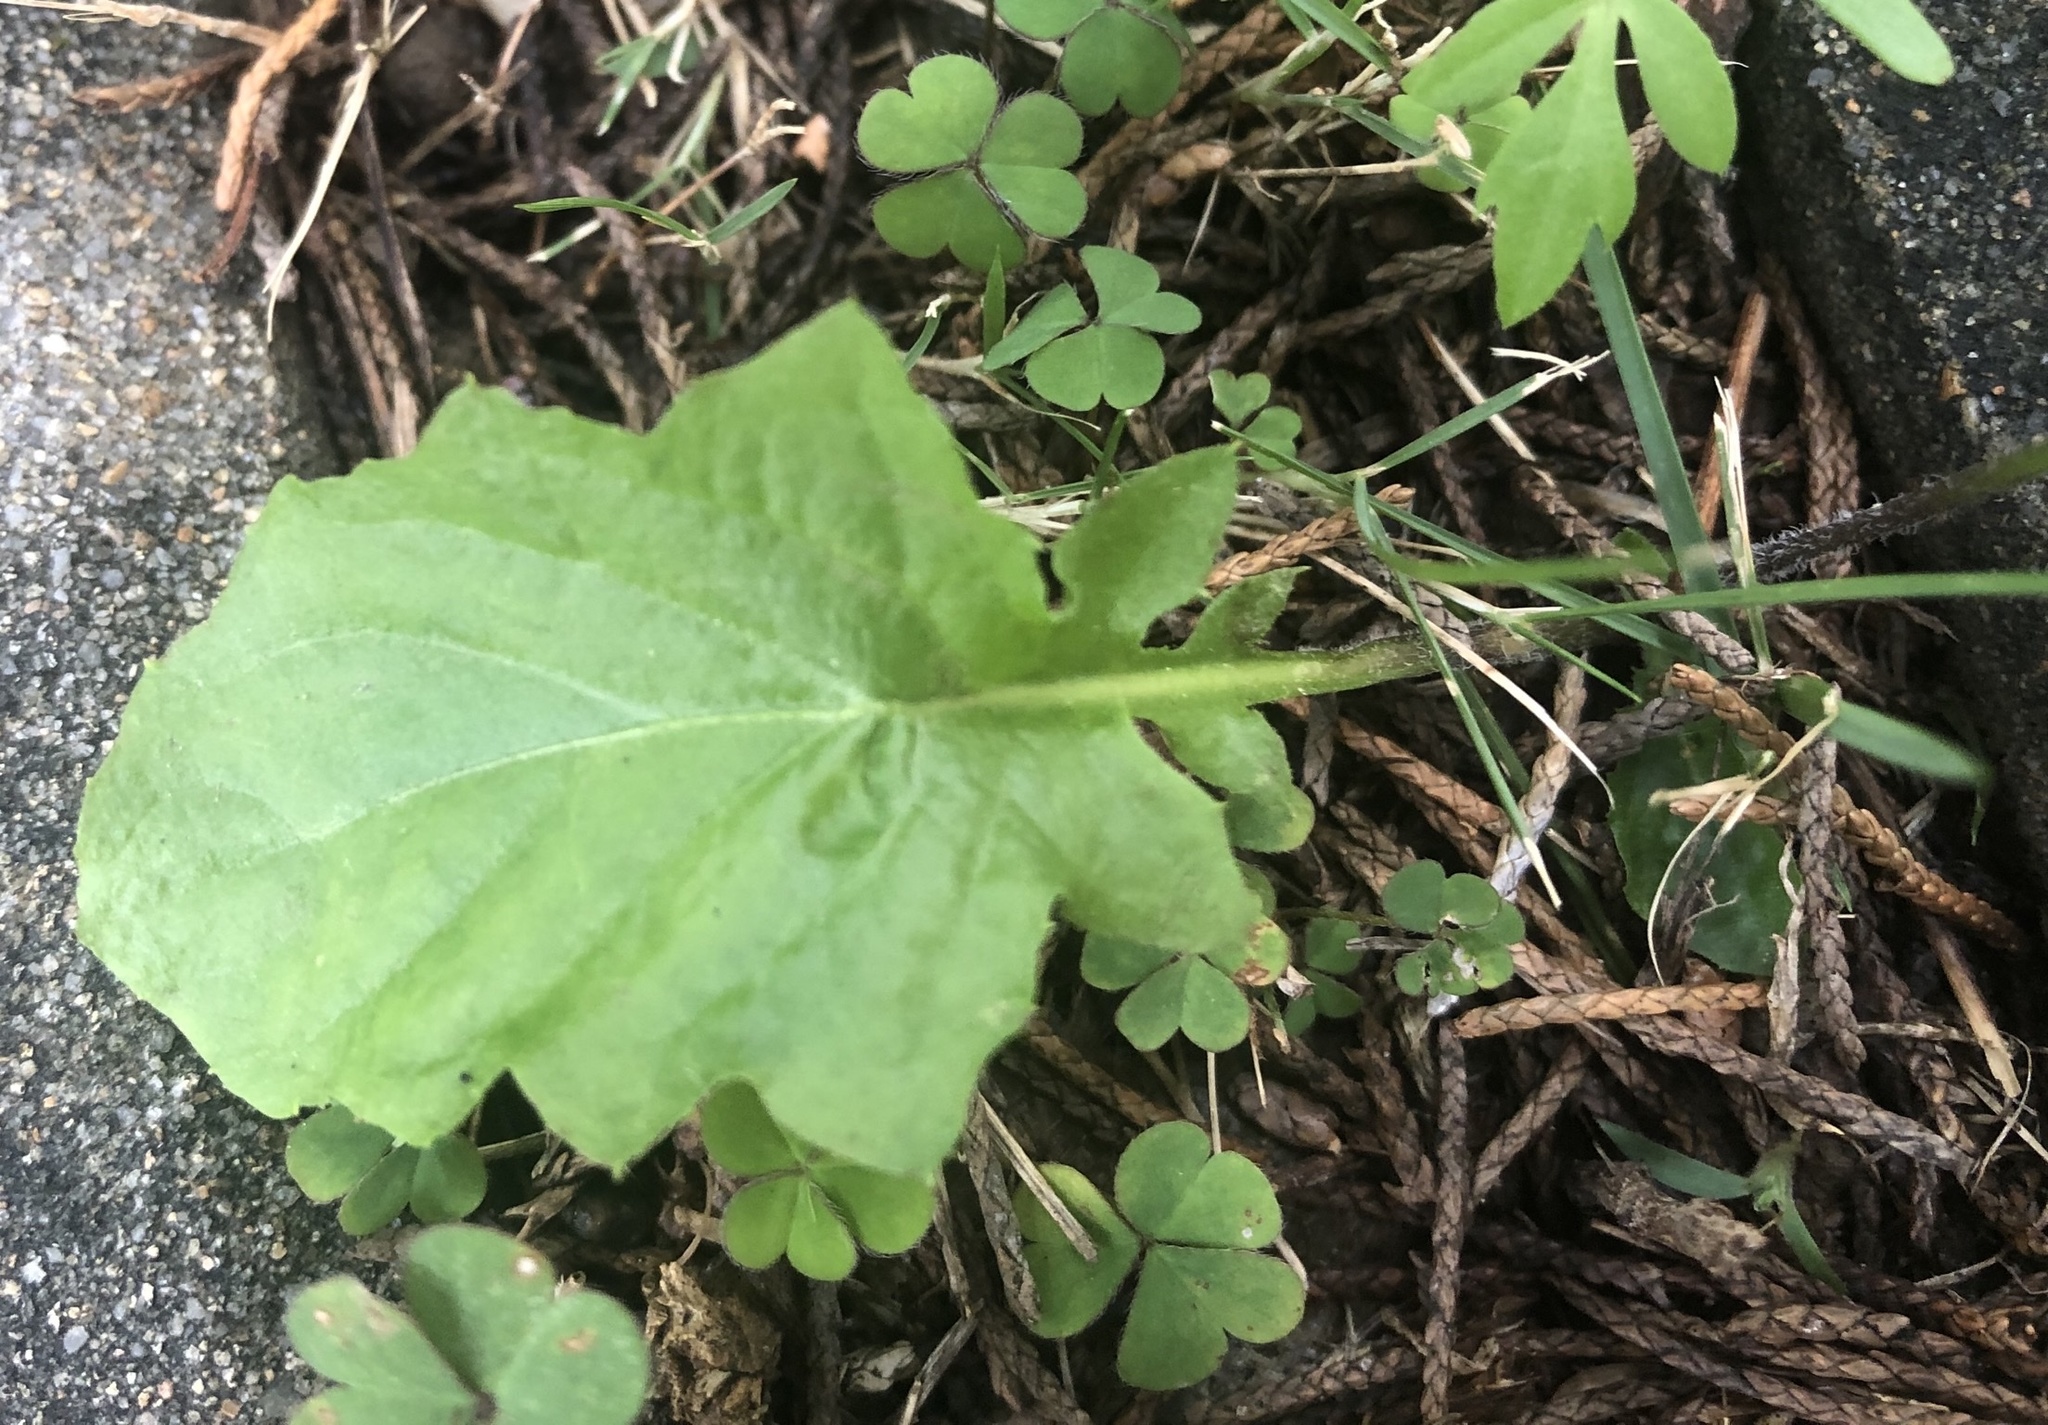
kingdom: Plantae
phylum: Tracheophyta
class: Magnoliopsida
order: Asterales
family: Asteraceae
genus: Youngia
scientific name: Youngia japonica
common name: Oriental false hawksbeard
